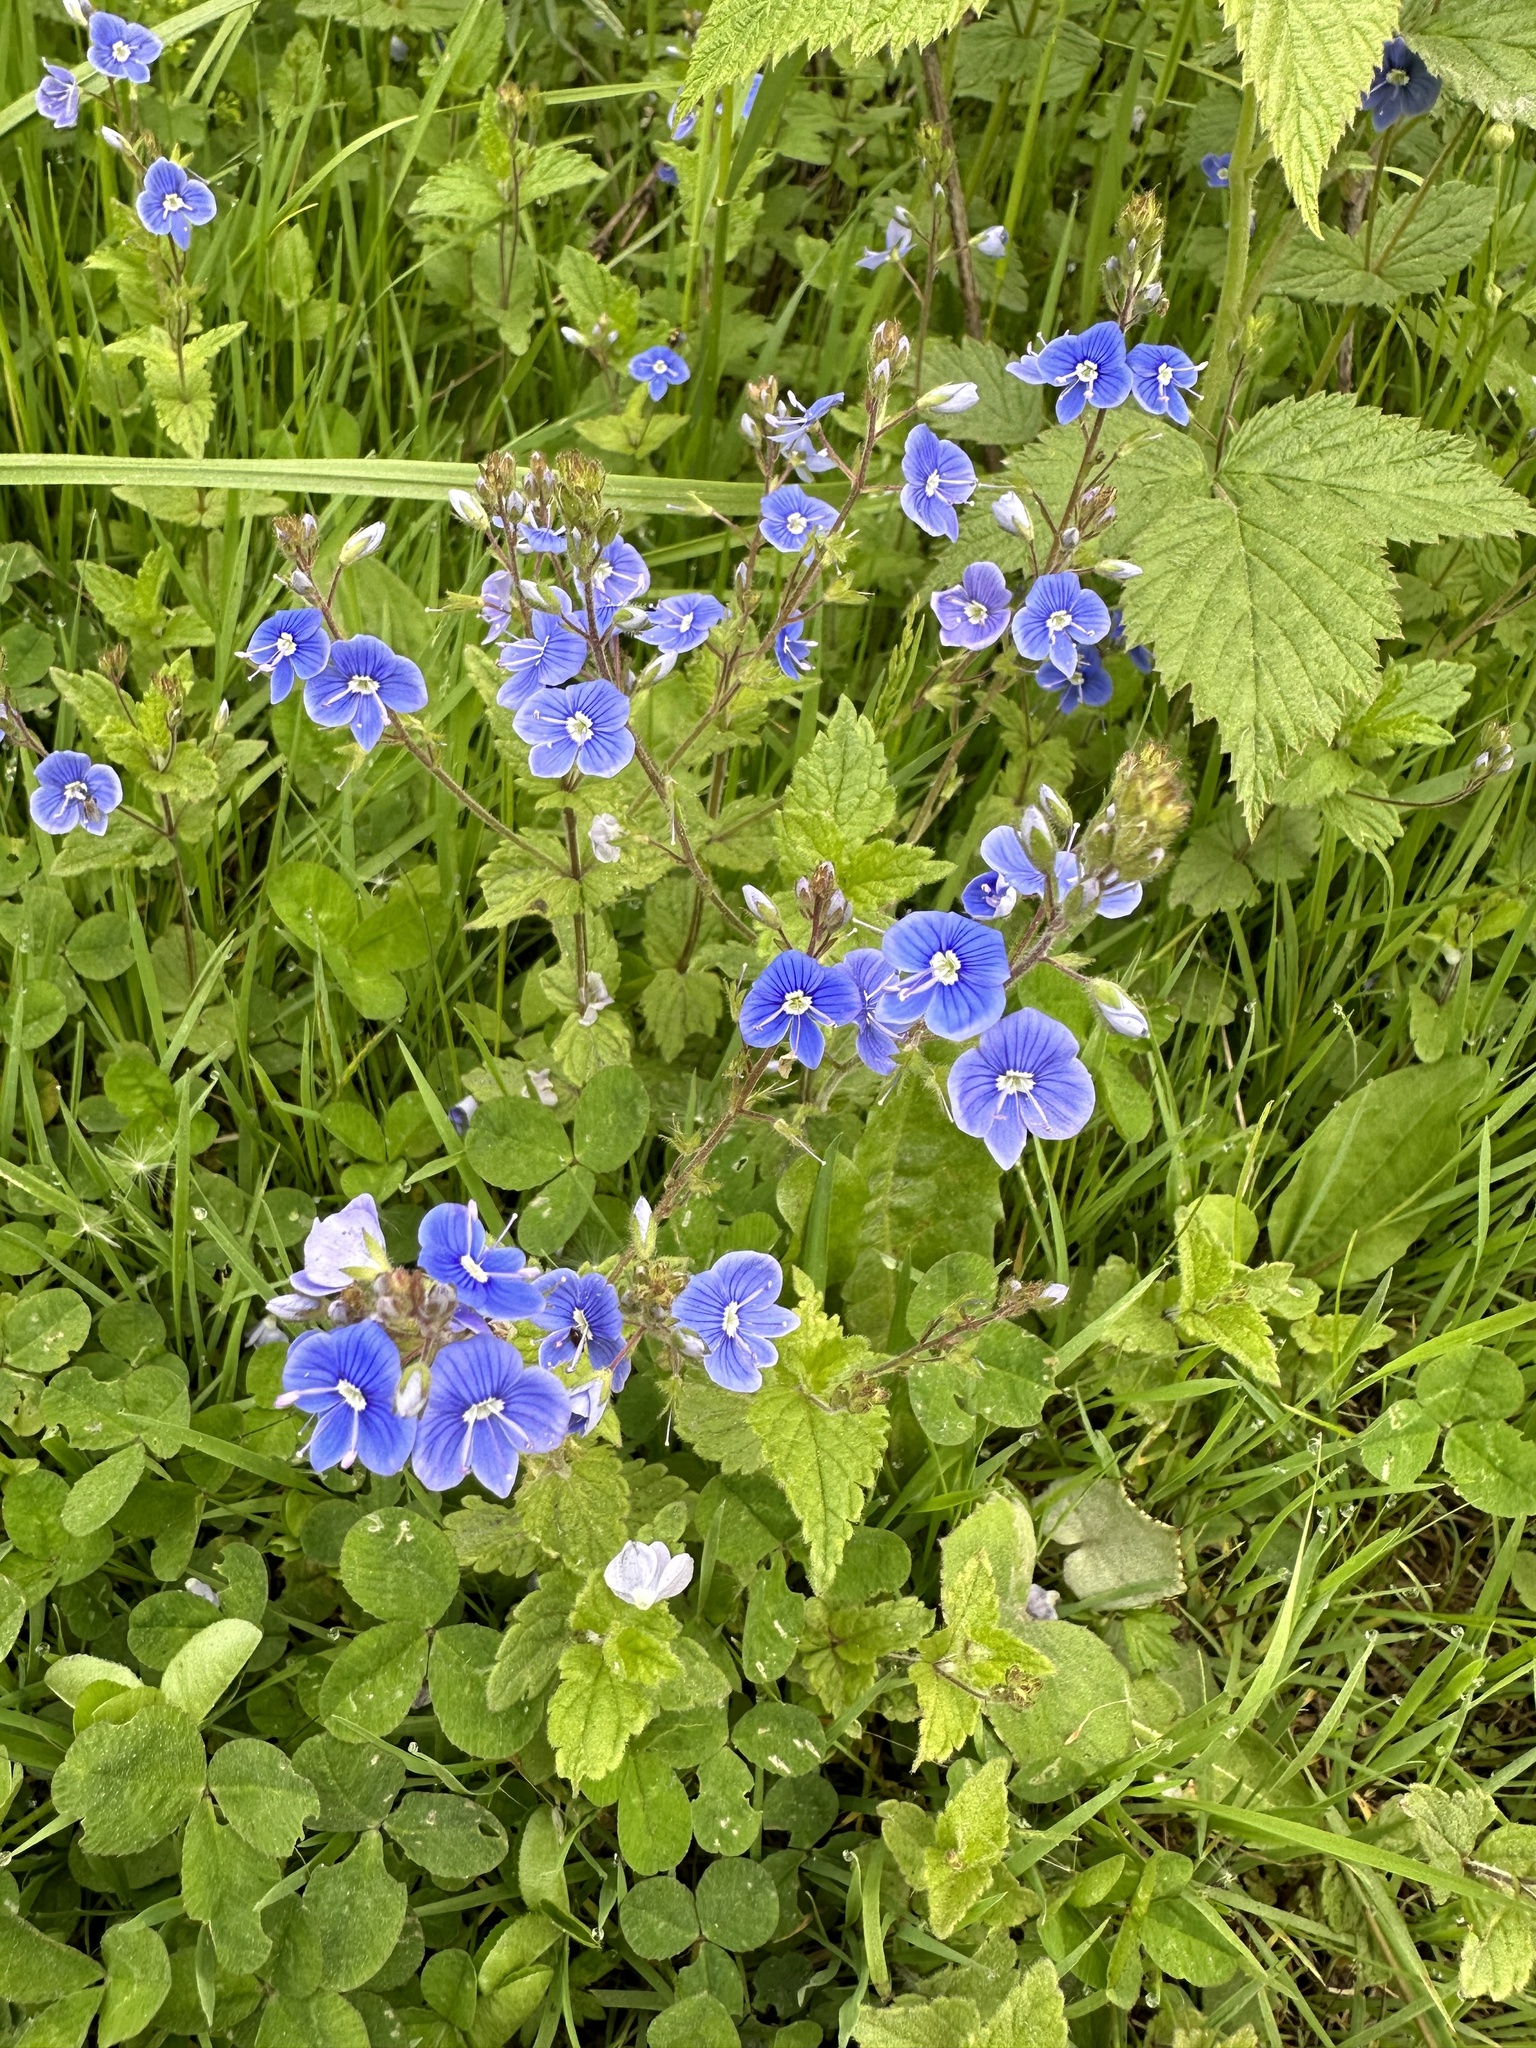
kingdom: Plantae
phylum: Tracheophyta
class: Magnoliopsida
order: Lamiales
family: Plantaginaceae
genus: Veronica
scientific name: Veronica chamaedrys
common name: Germander speedwell
